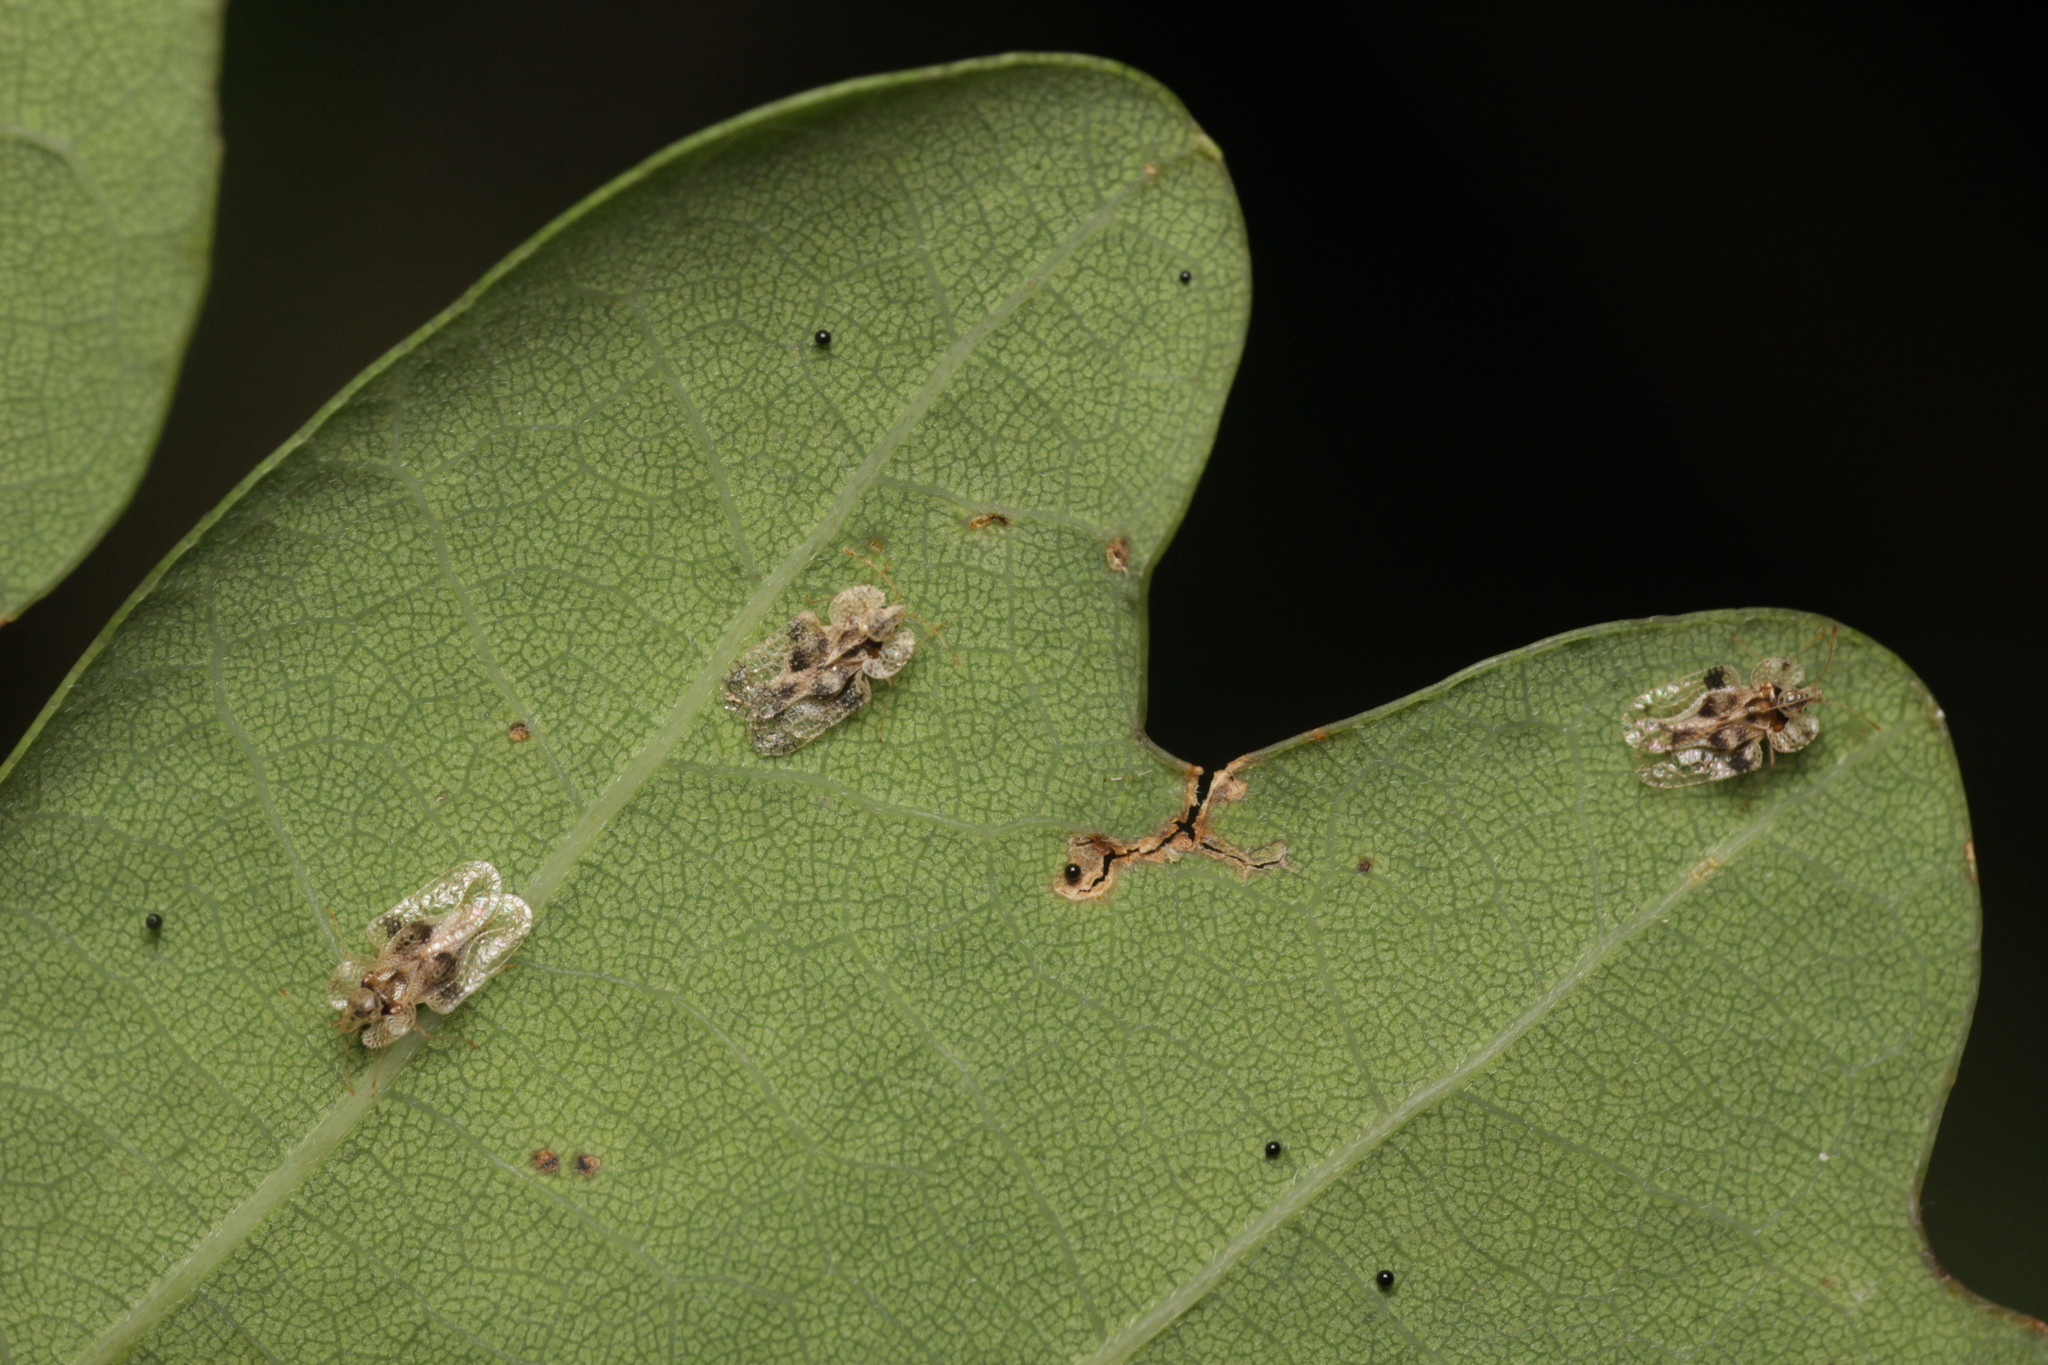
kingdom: Animalia
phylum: Arthropoda
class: Insecta
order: Hemiptera
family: Tingidae
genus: Corythucha
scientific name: Corythucha arcuata
